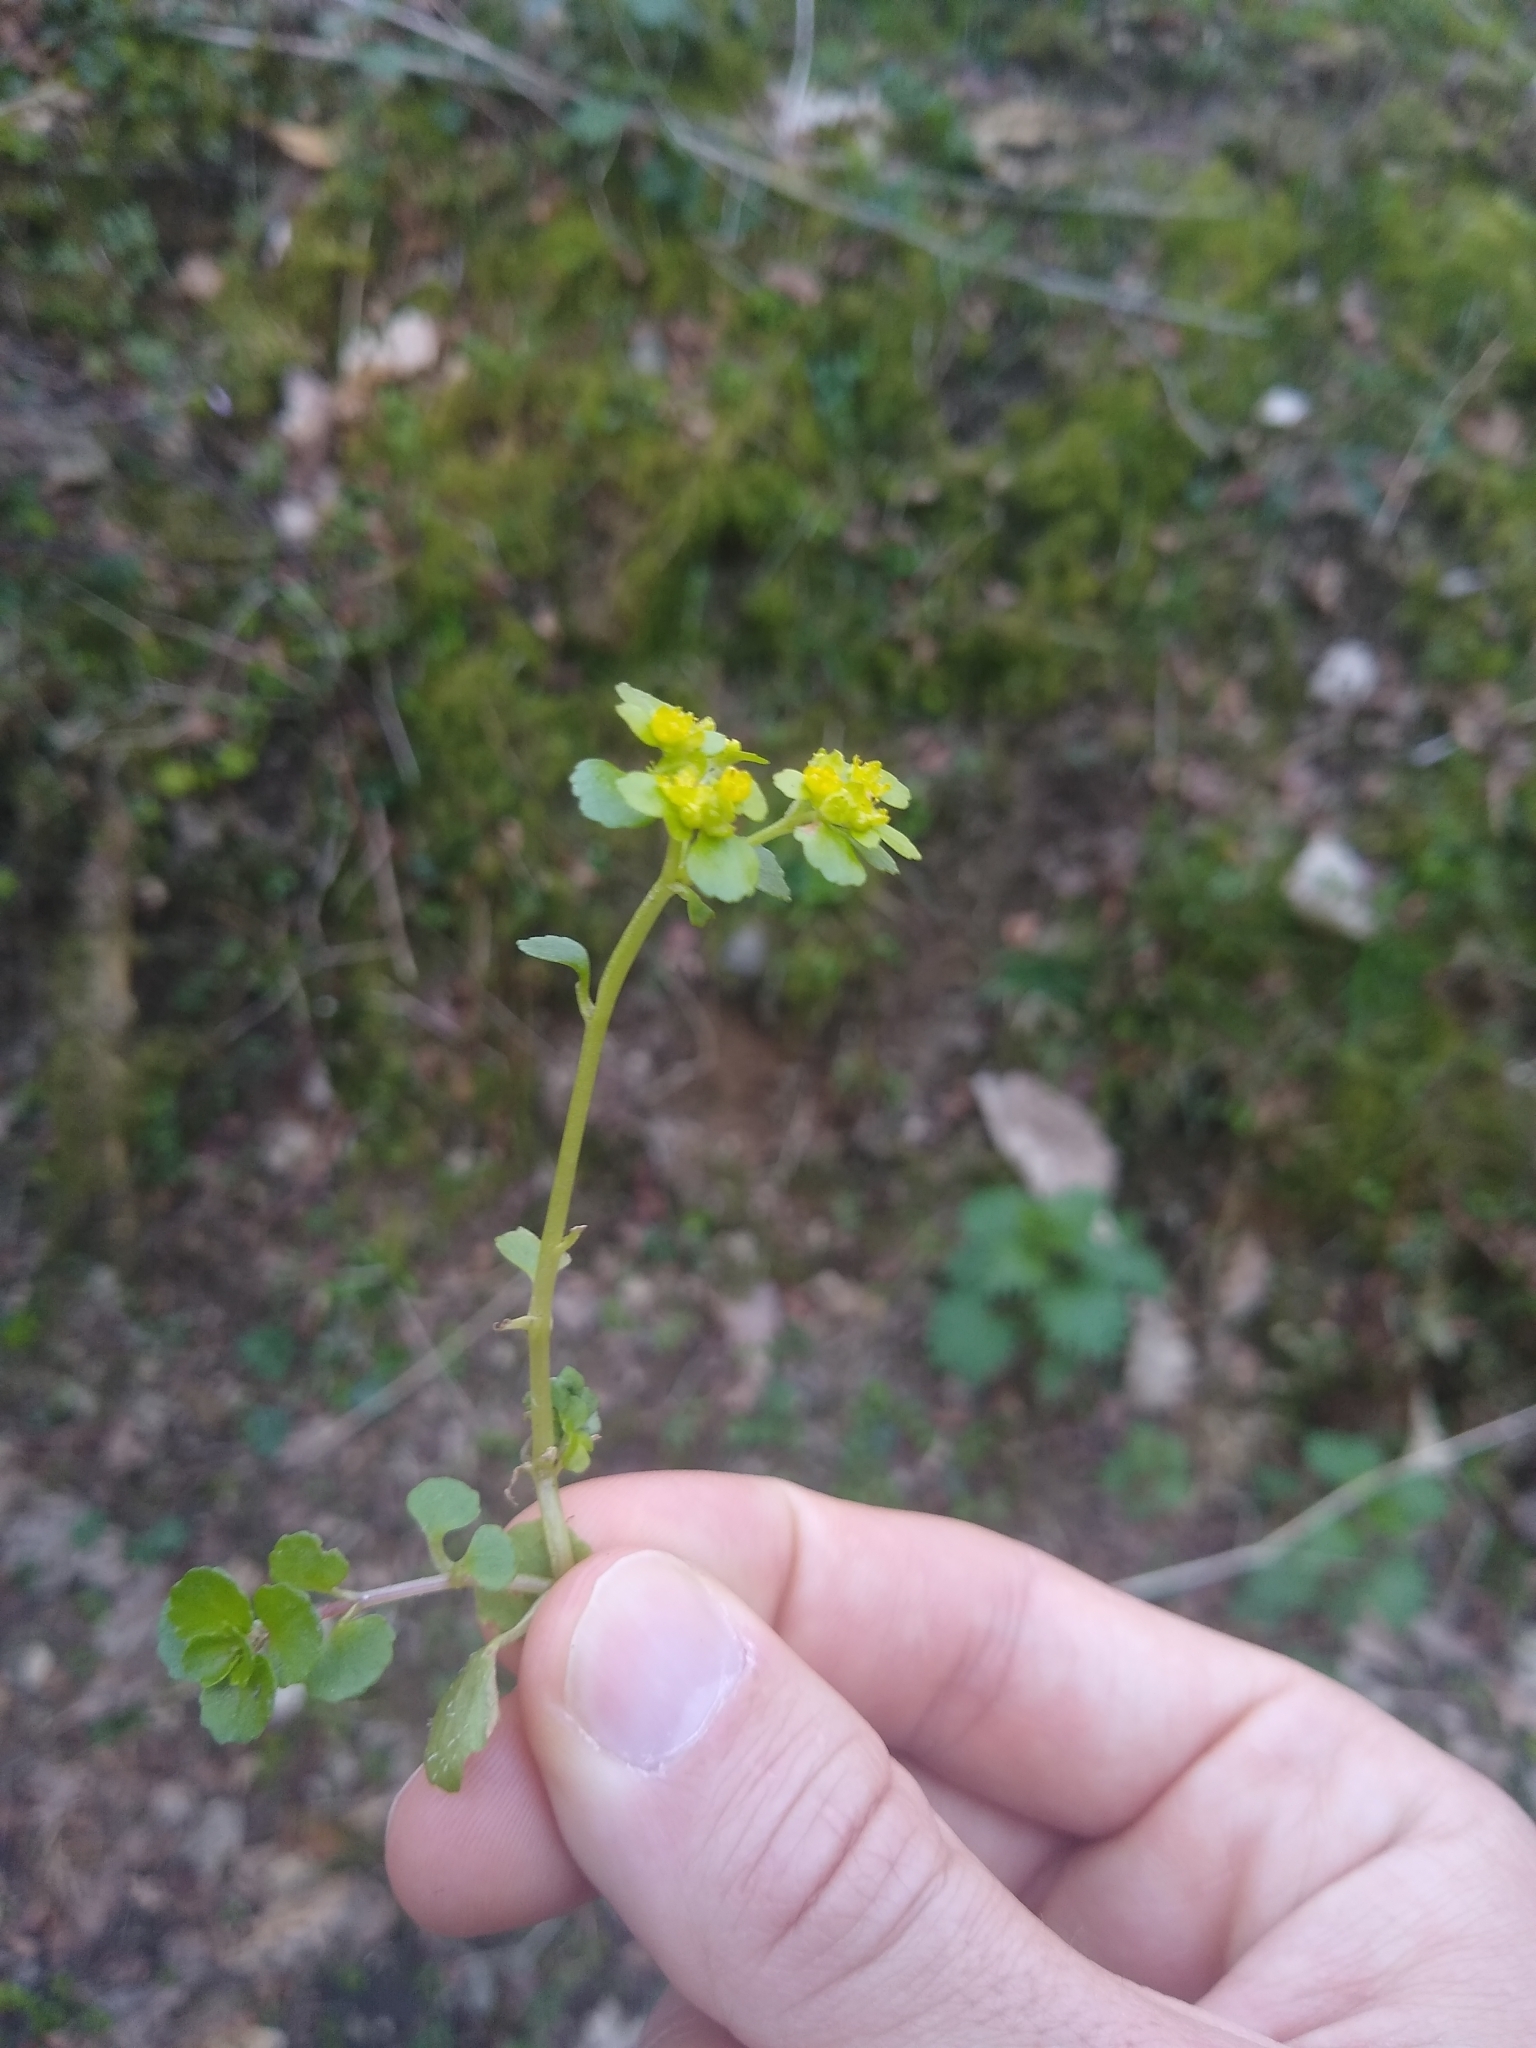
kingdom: Plantae
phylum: Tracheophyta
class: Magnoliopsida
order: Saxifragales
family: Saxifragaceae
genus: Chrysosplenium
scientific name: Chrysosplenium oppositifolium
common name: Opposite-leaved golden-saxifrage
